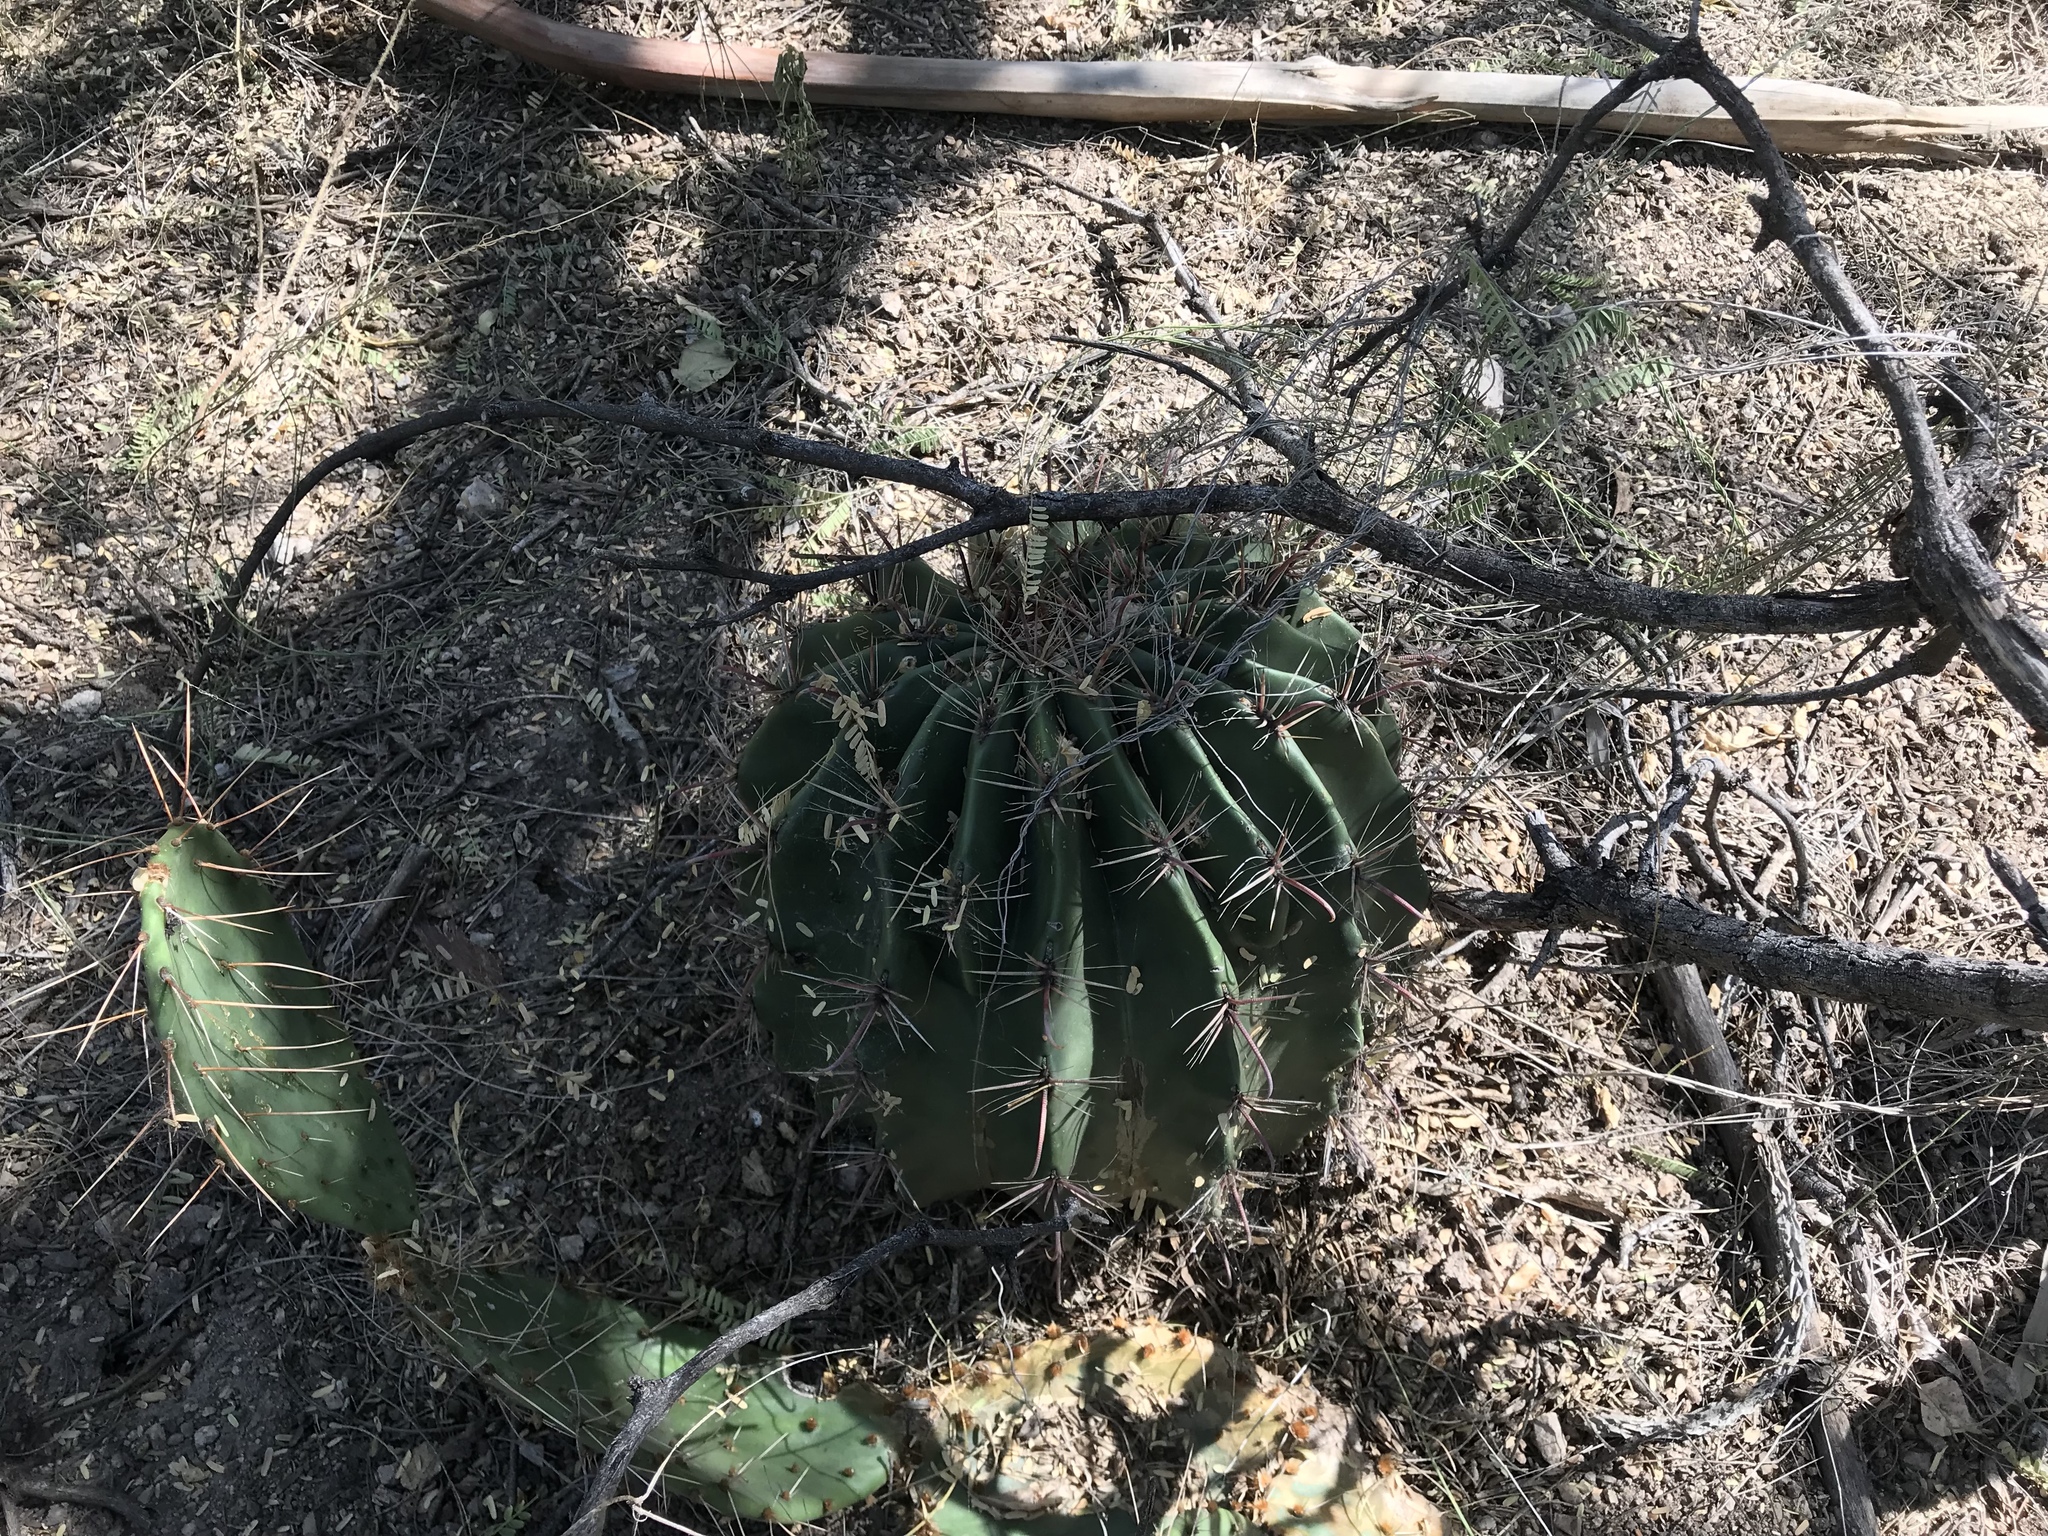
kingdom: Plantae
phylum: Tracheophyta
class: Magnoliopsida
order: Caryophyllales
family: Cactaceae
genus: Ferocactus
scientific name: Ferocactus wislizeni
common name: Candy barrel cactus
